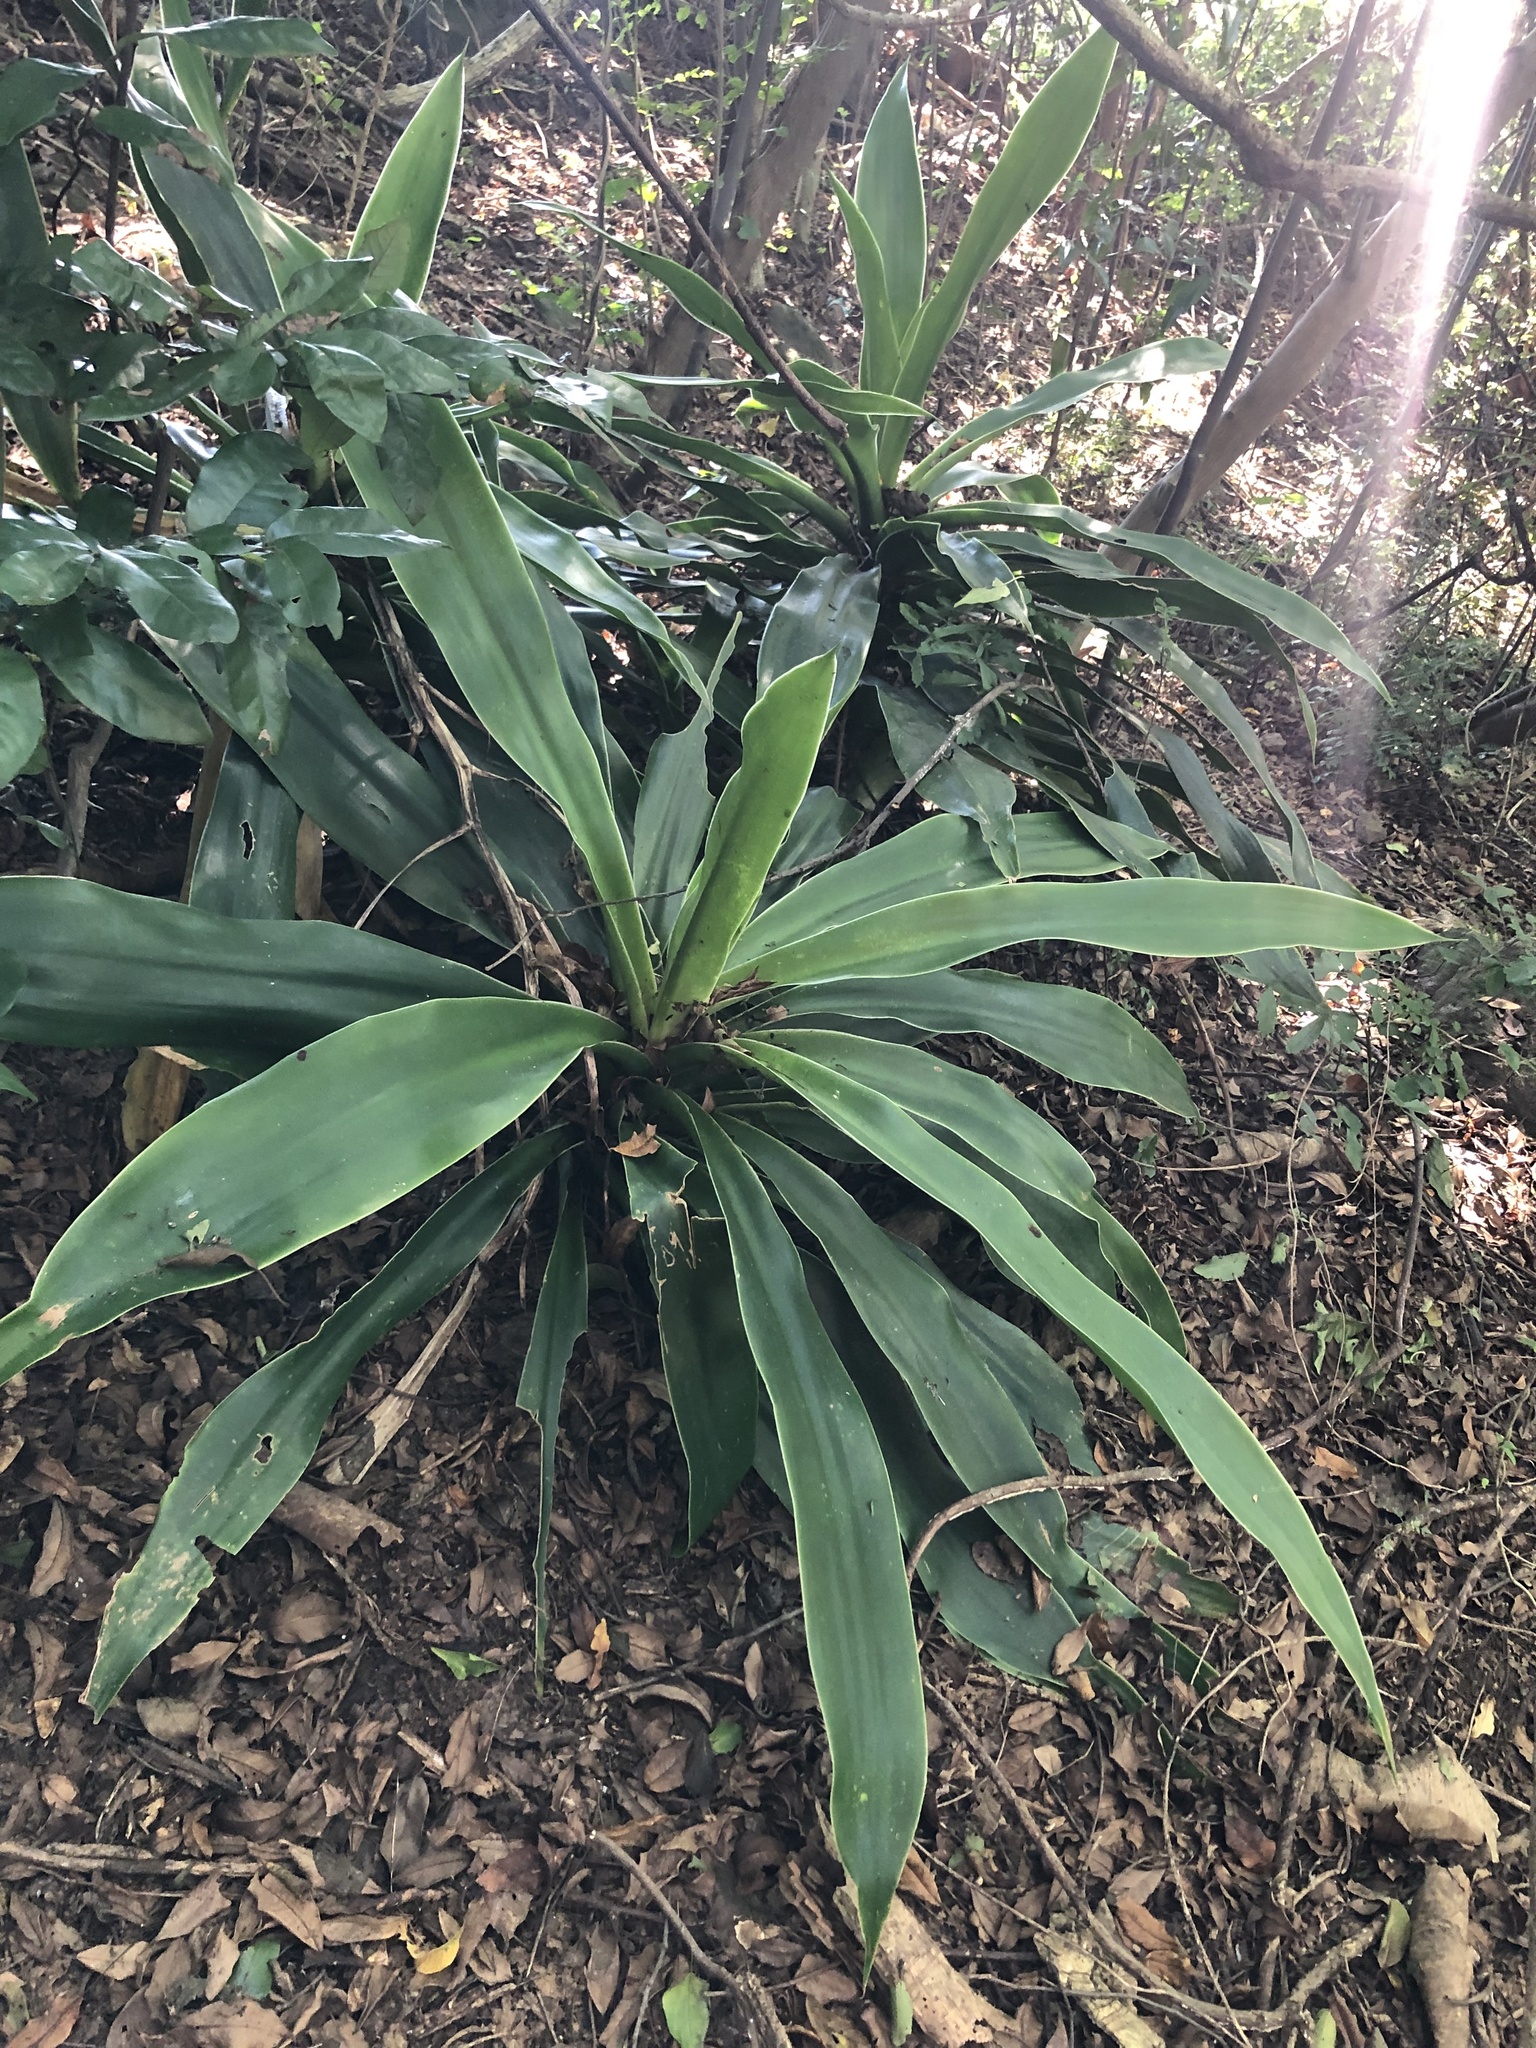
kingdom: Plantae
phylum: Tracheophyta
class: Liliopsida
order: Asparagales
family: Asparagaceae
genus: Dracaena
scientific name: Dracaena aletriformis
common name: Large-leaved dragon tree
